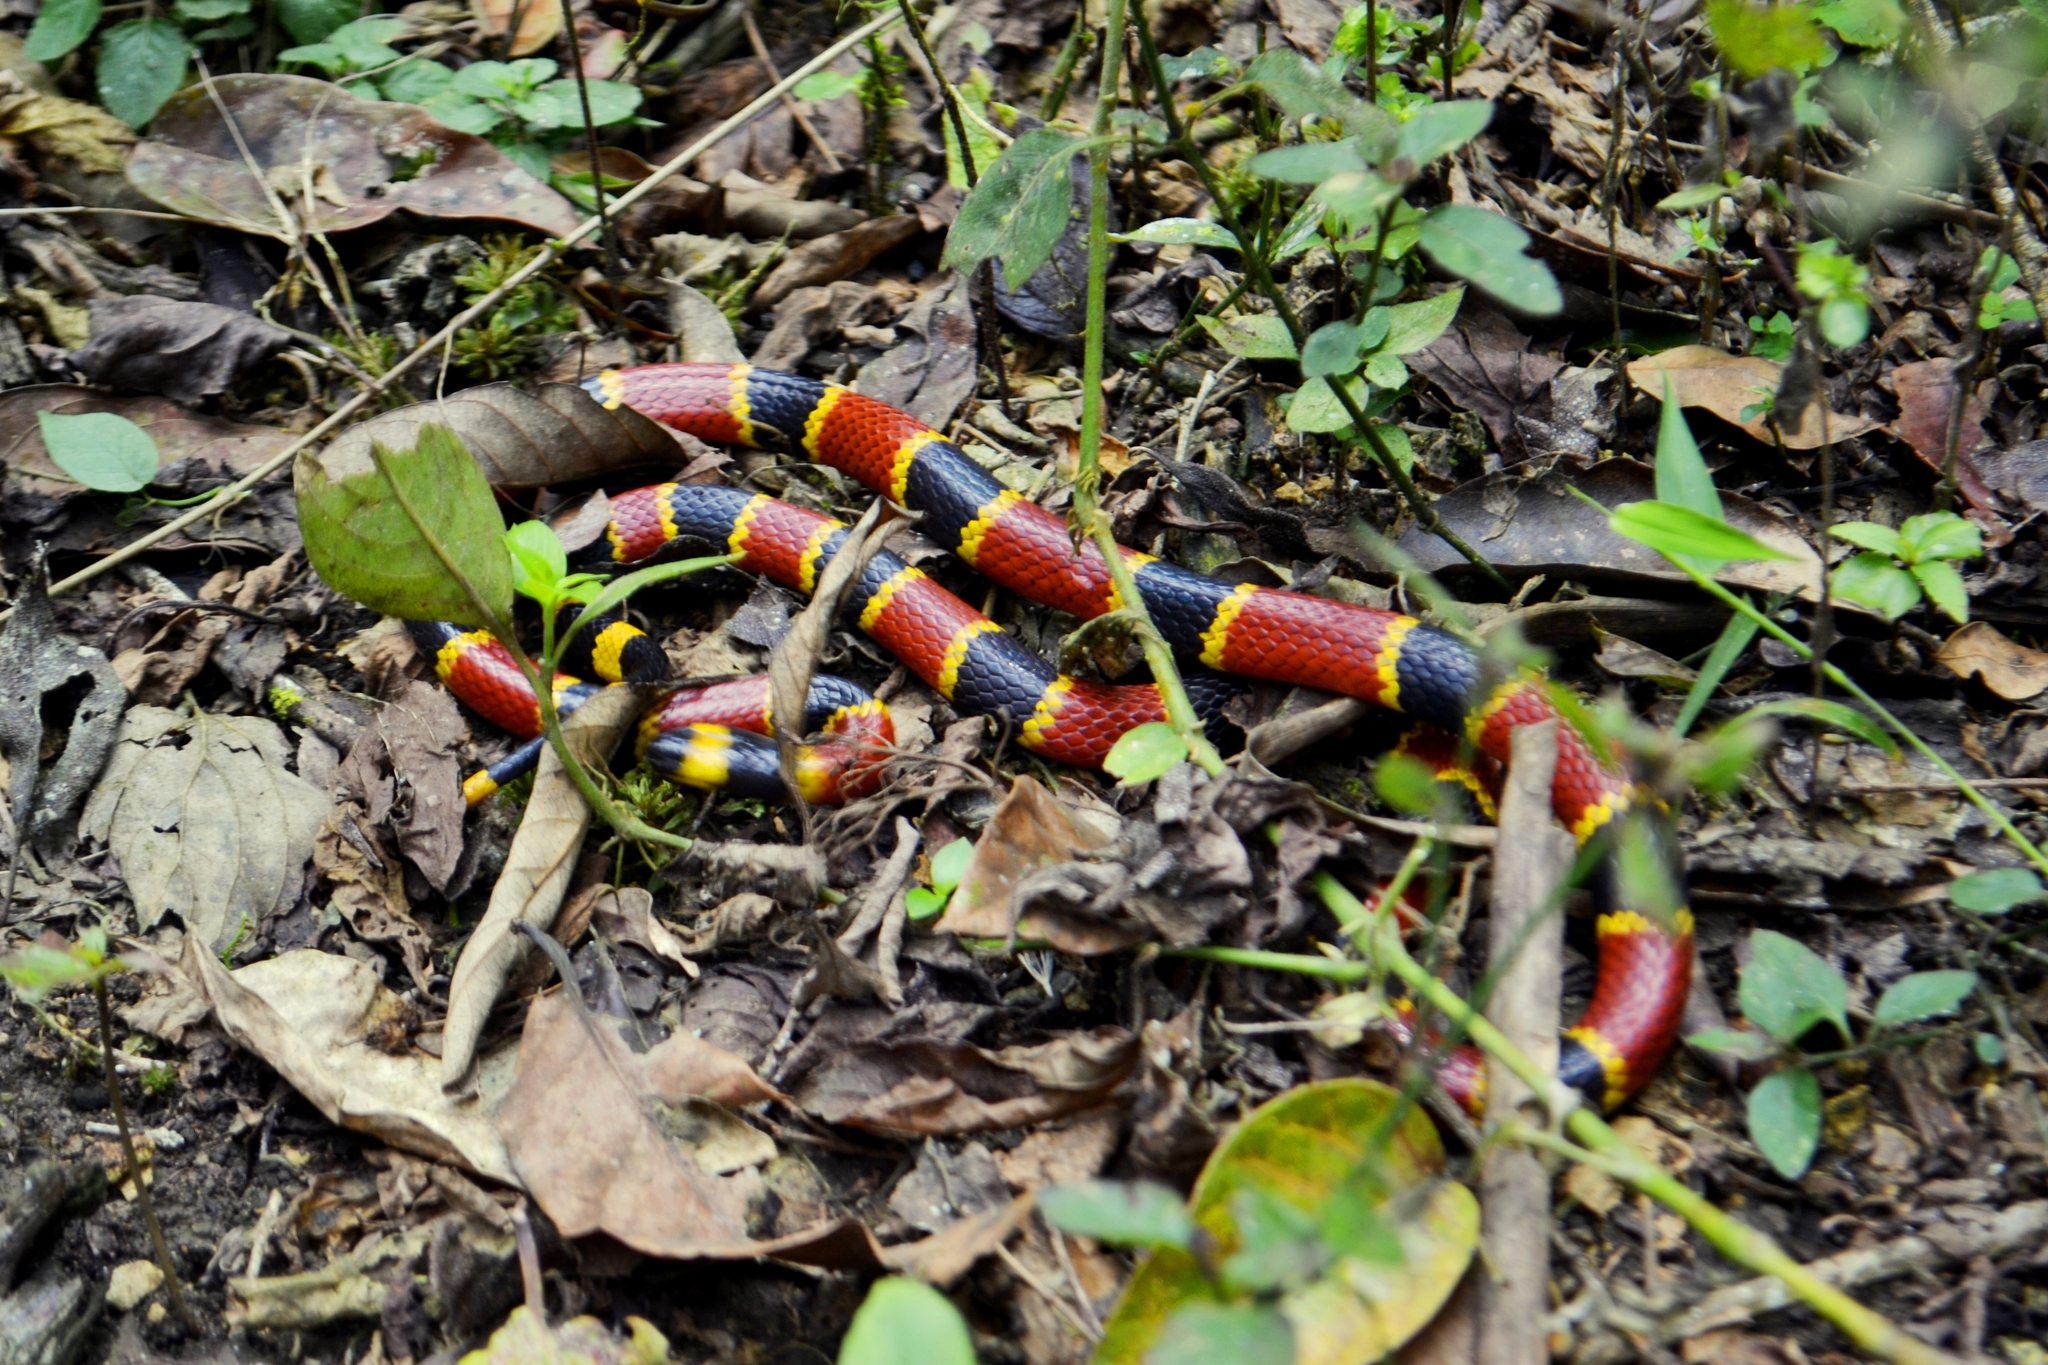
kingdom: Animalia
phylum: Chordata
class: Squamata
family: Elapidae
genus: Micrurus
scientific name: Micrurus browni
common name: Brown's coral snake
